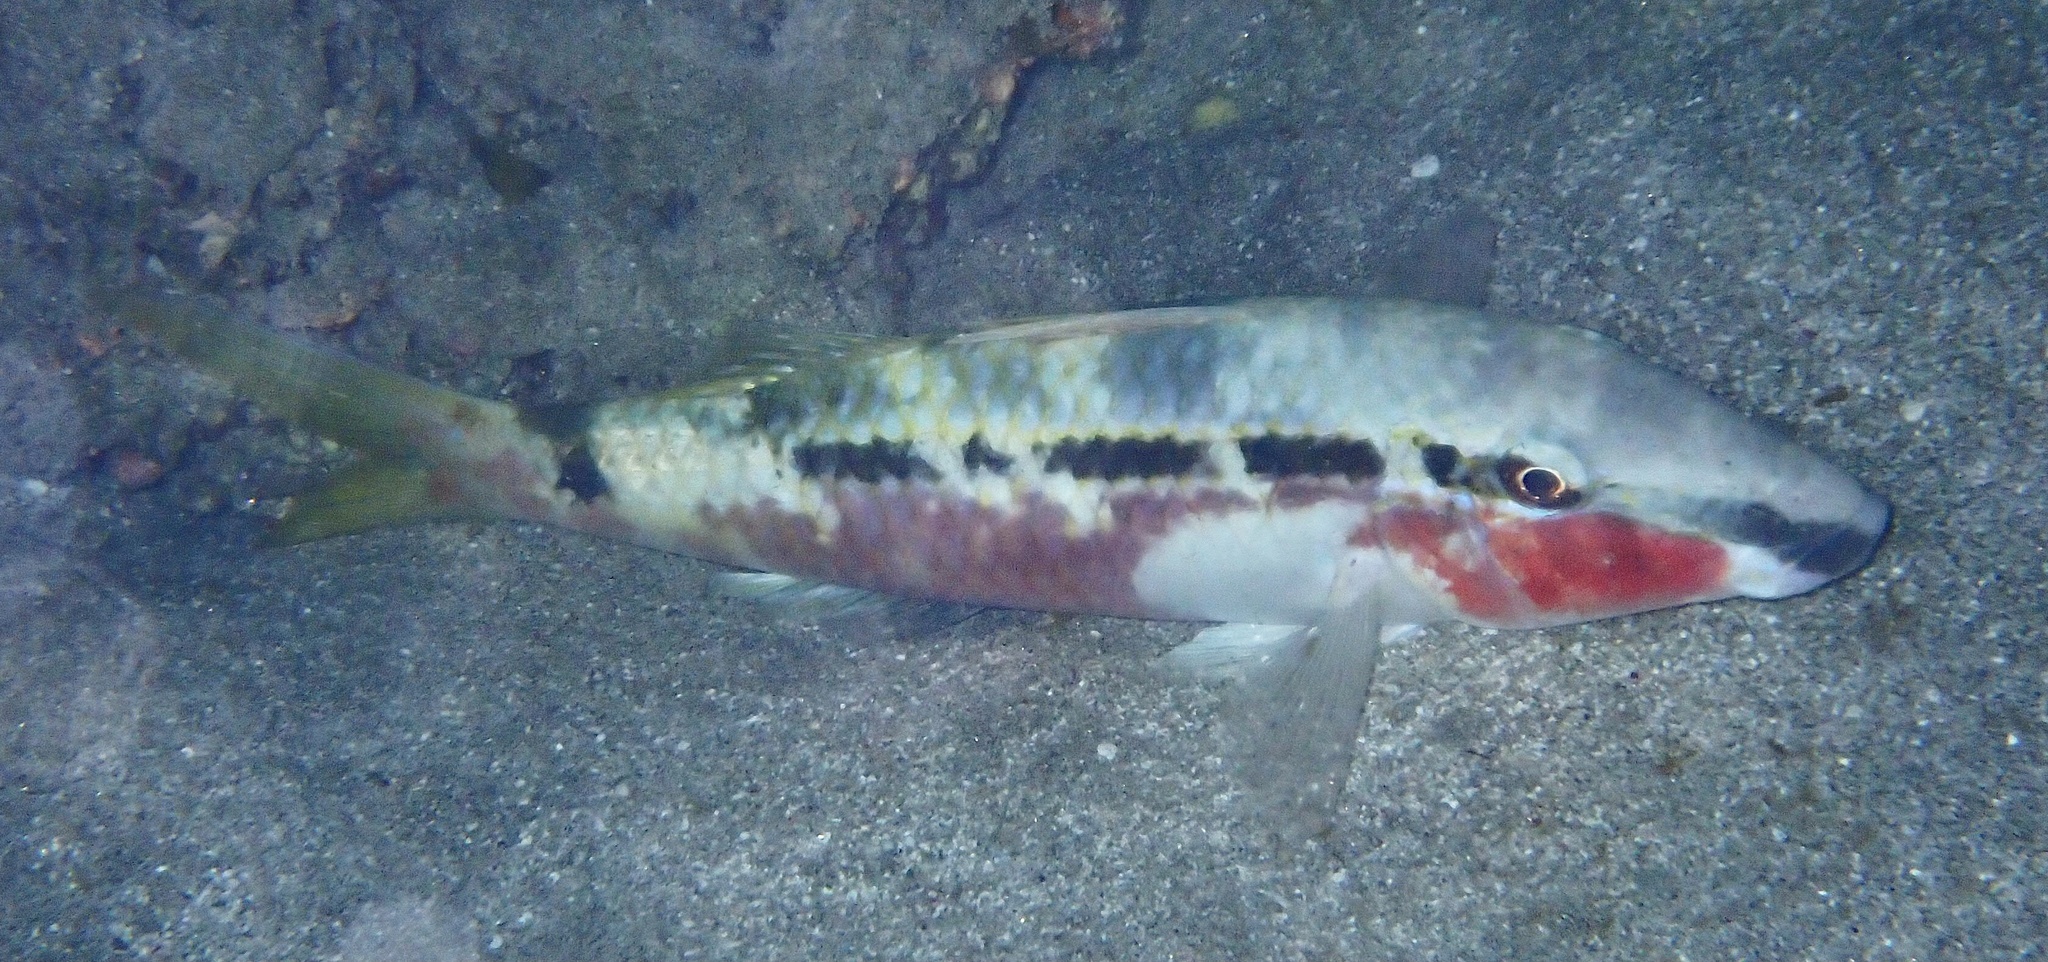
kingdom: Animalia
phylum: Chordata
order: Perciformes
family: Mullidae
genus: Parupeneus
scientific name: Parupeneus forsskali
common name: Red sea goatfish
